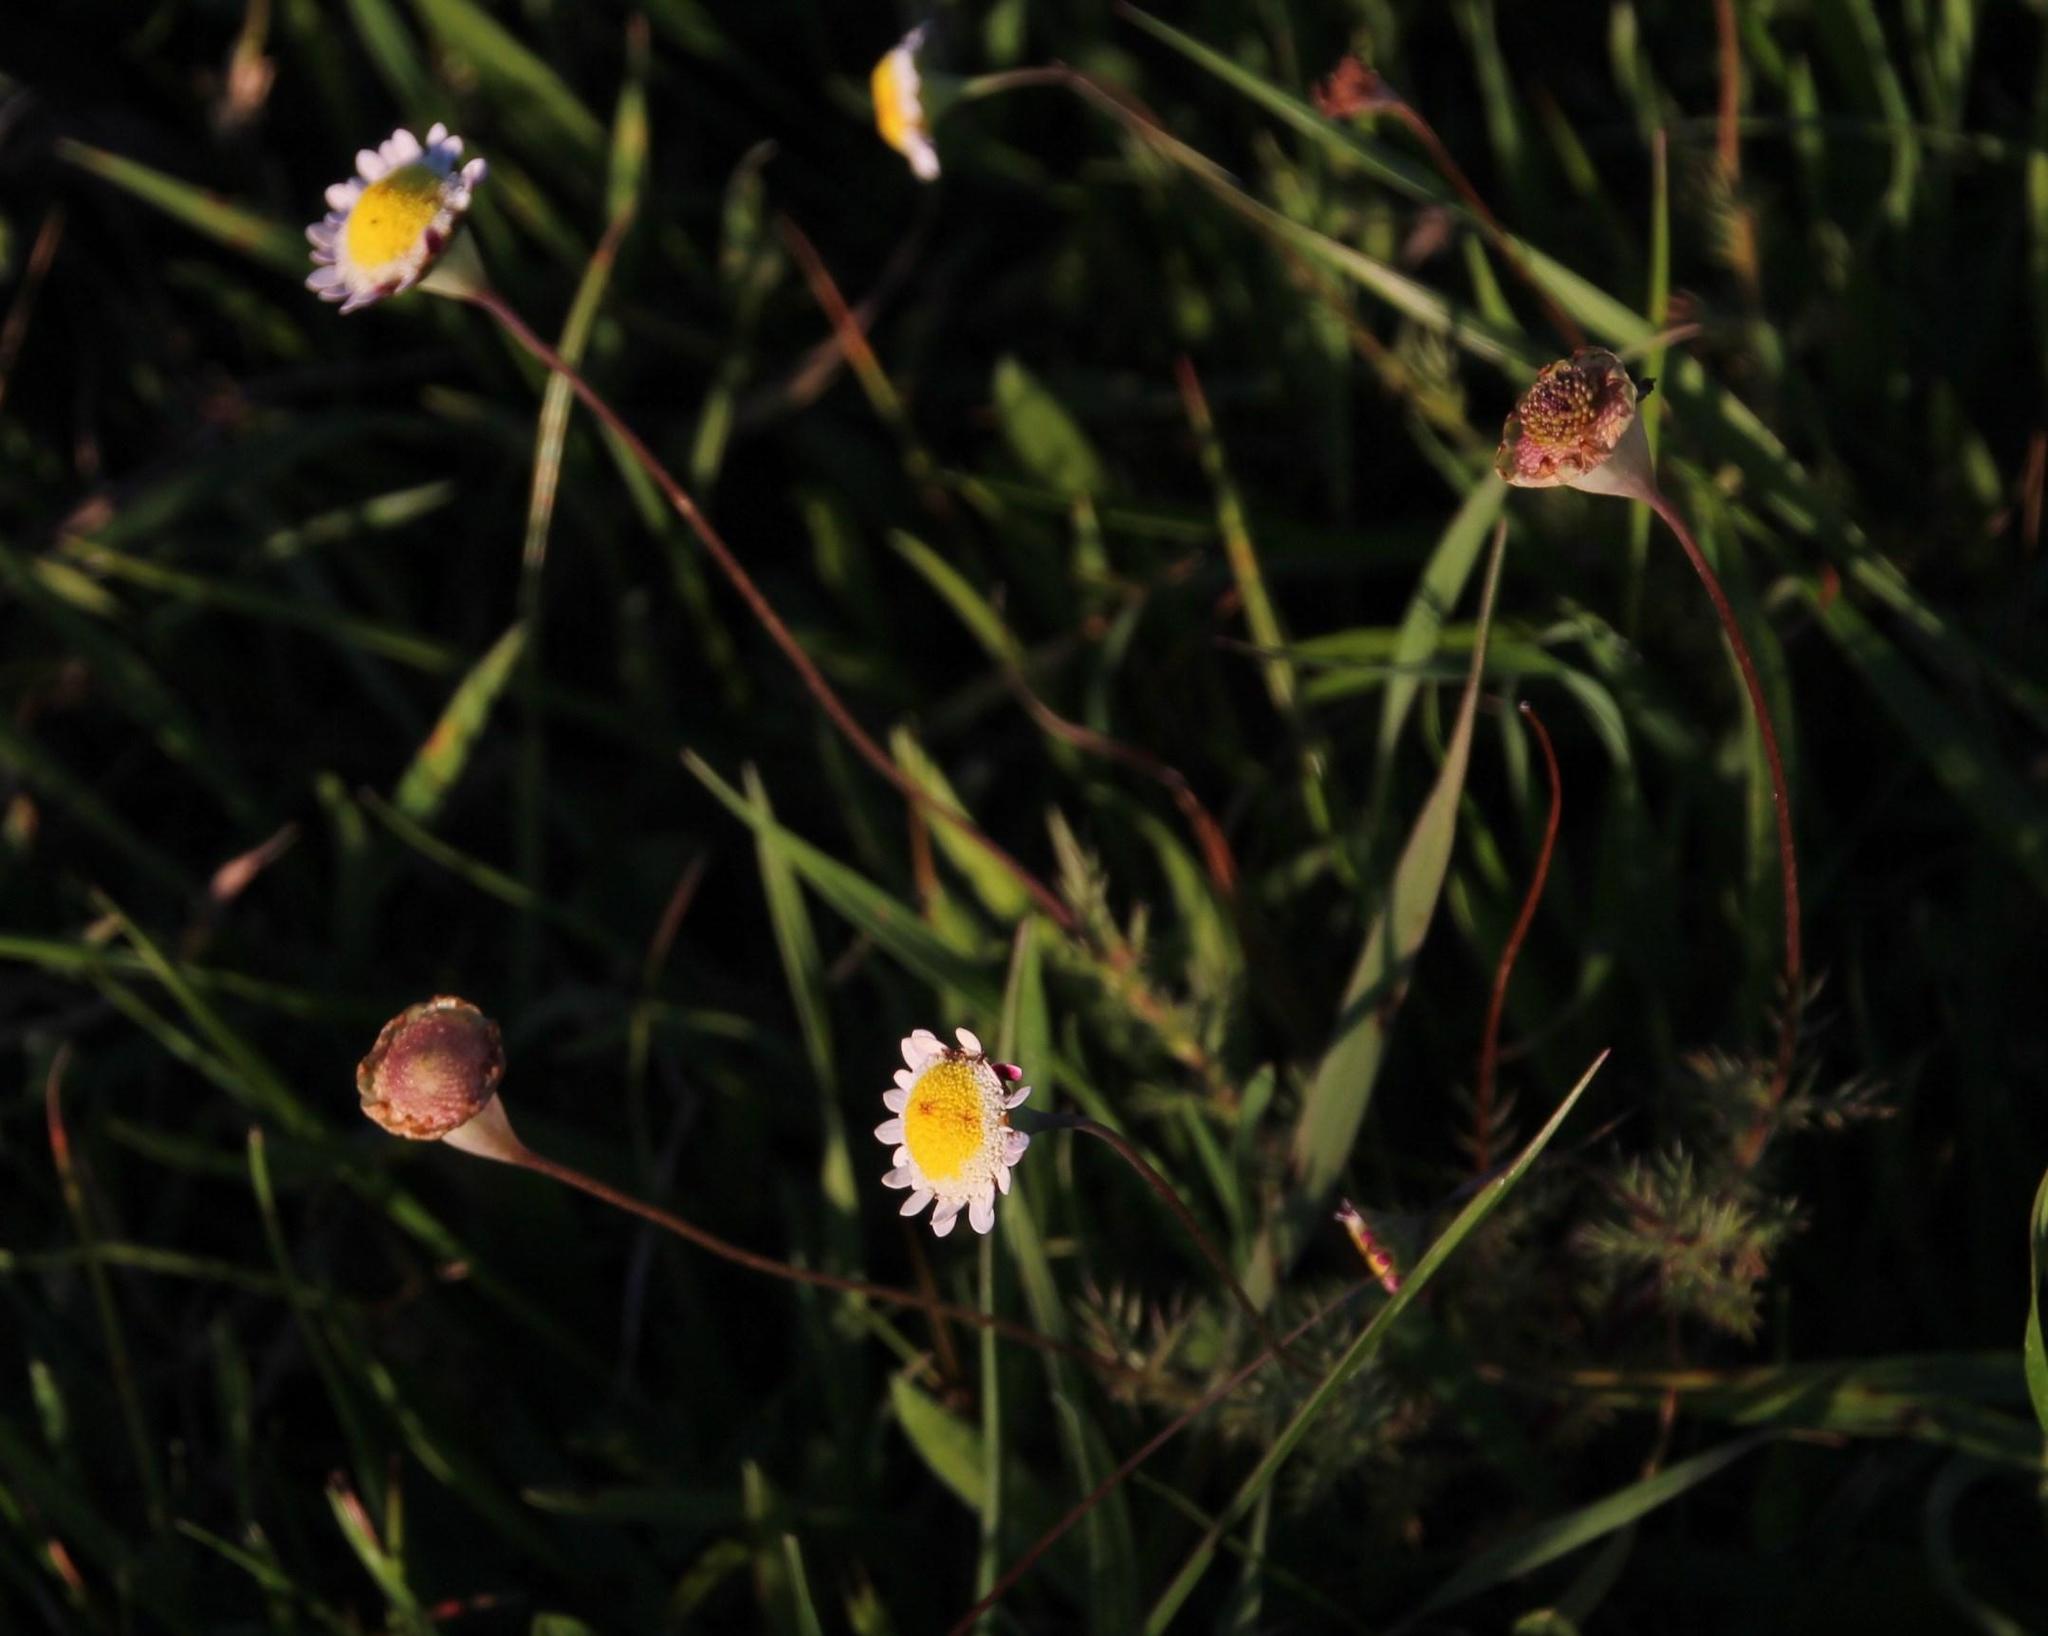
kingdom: Plantae
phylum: Tracheophyta
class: Magnoliopsida
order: Asterales
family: Asteraceae
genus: Cotula
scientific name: Cotula turbinata
